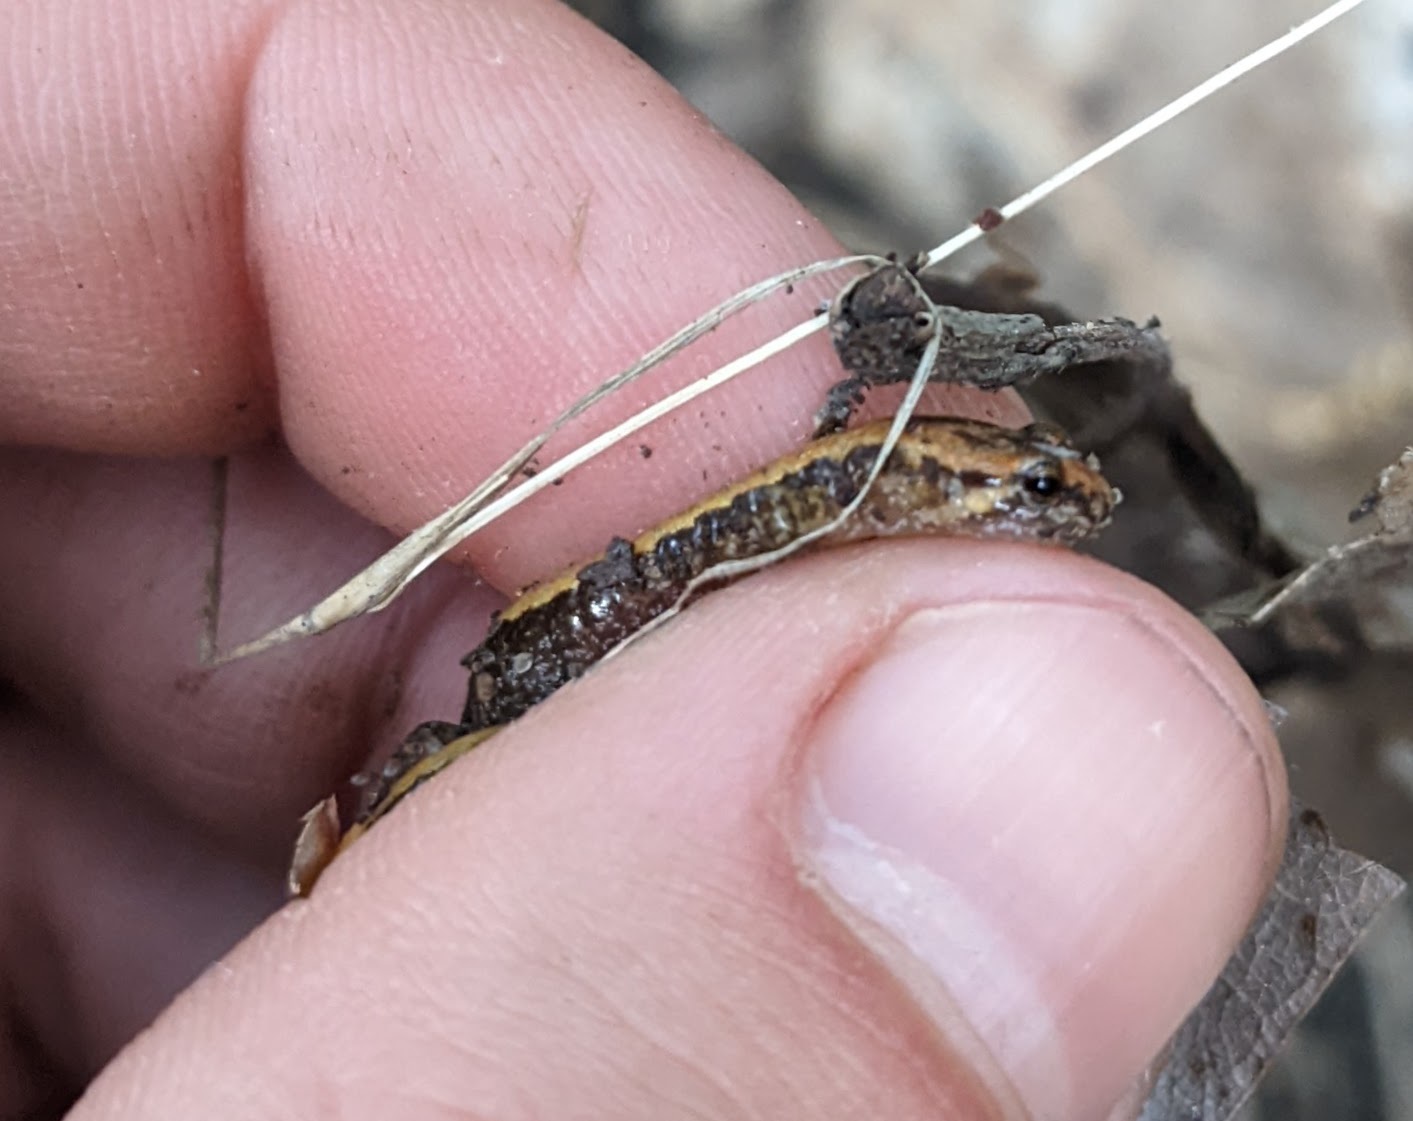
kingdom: Animalia
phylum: Chordata
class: Amphibia
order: Caudata
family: Plethodontidae
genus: Desmognathus
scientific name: Desmognathus ochrophaeus
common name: Allegheny mountain dusky salamander
